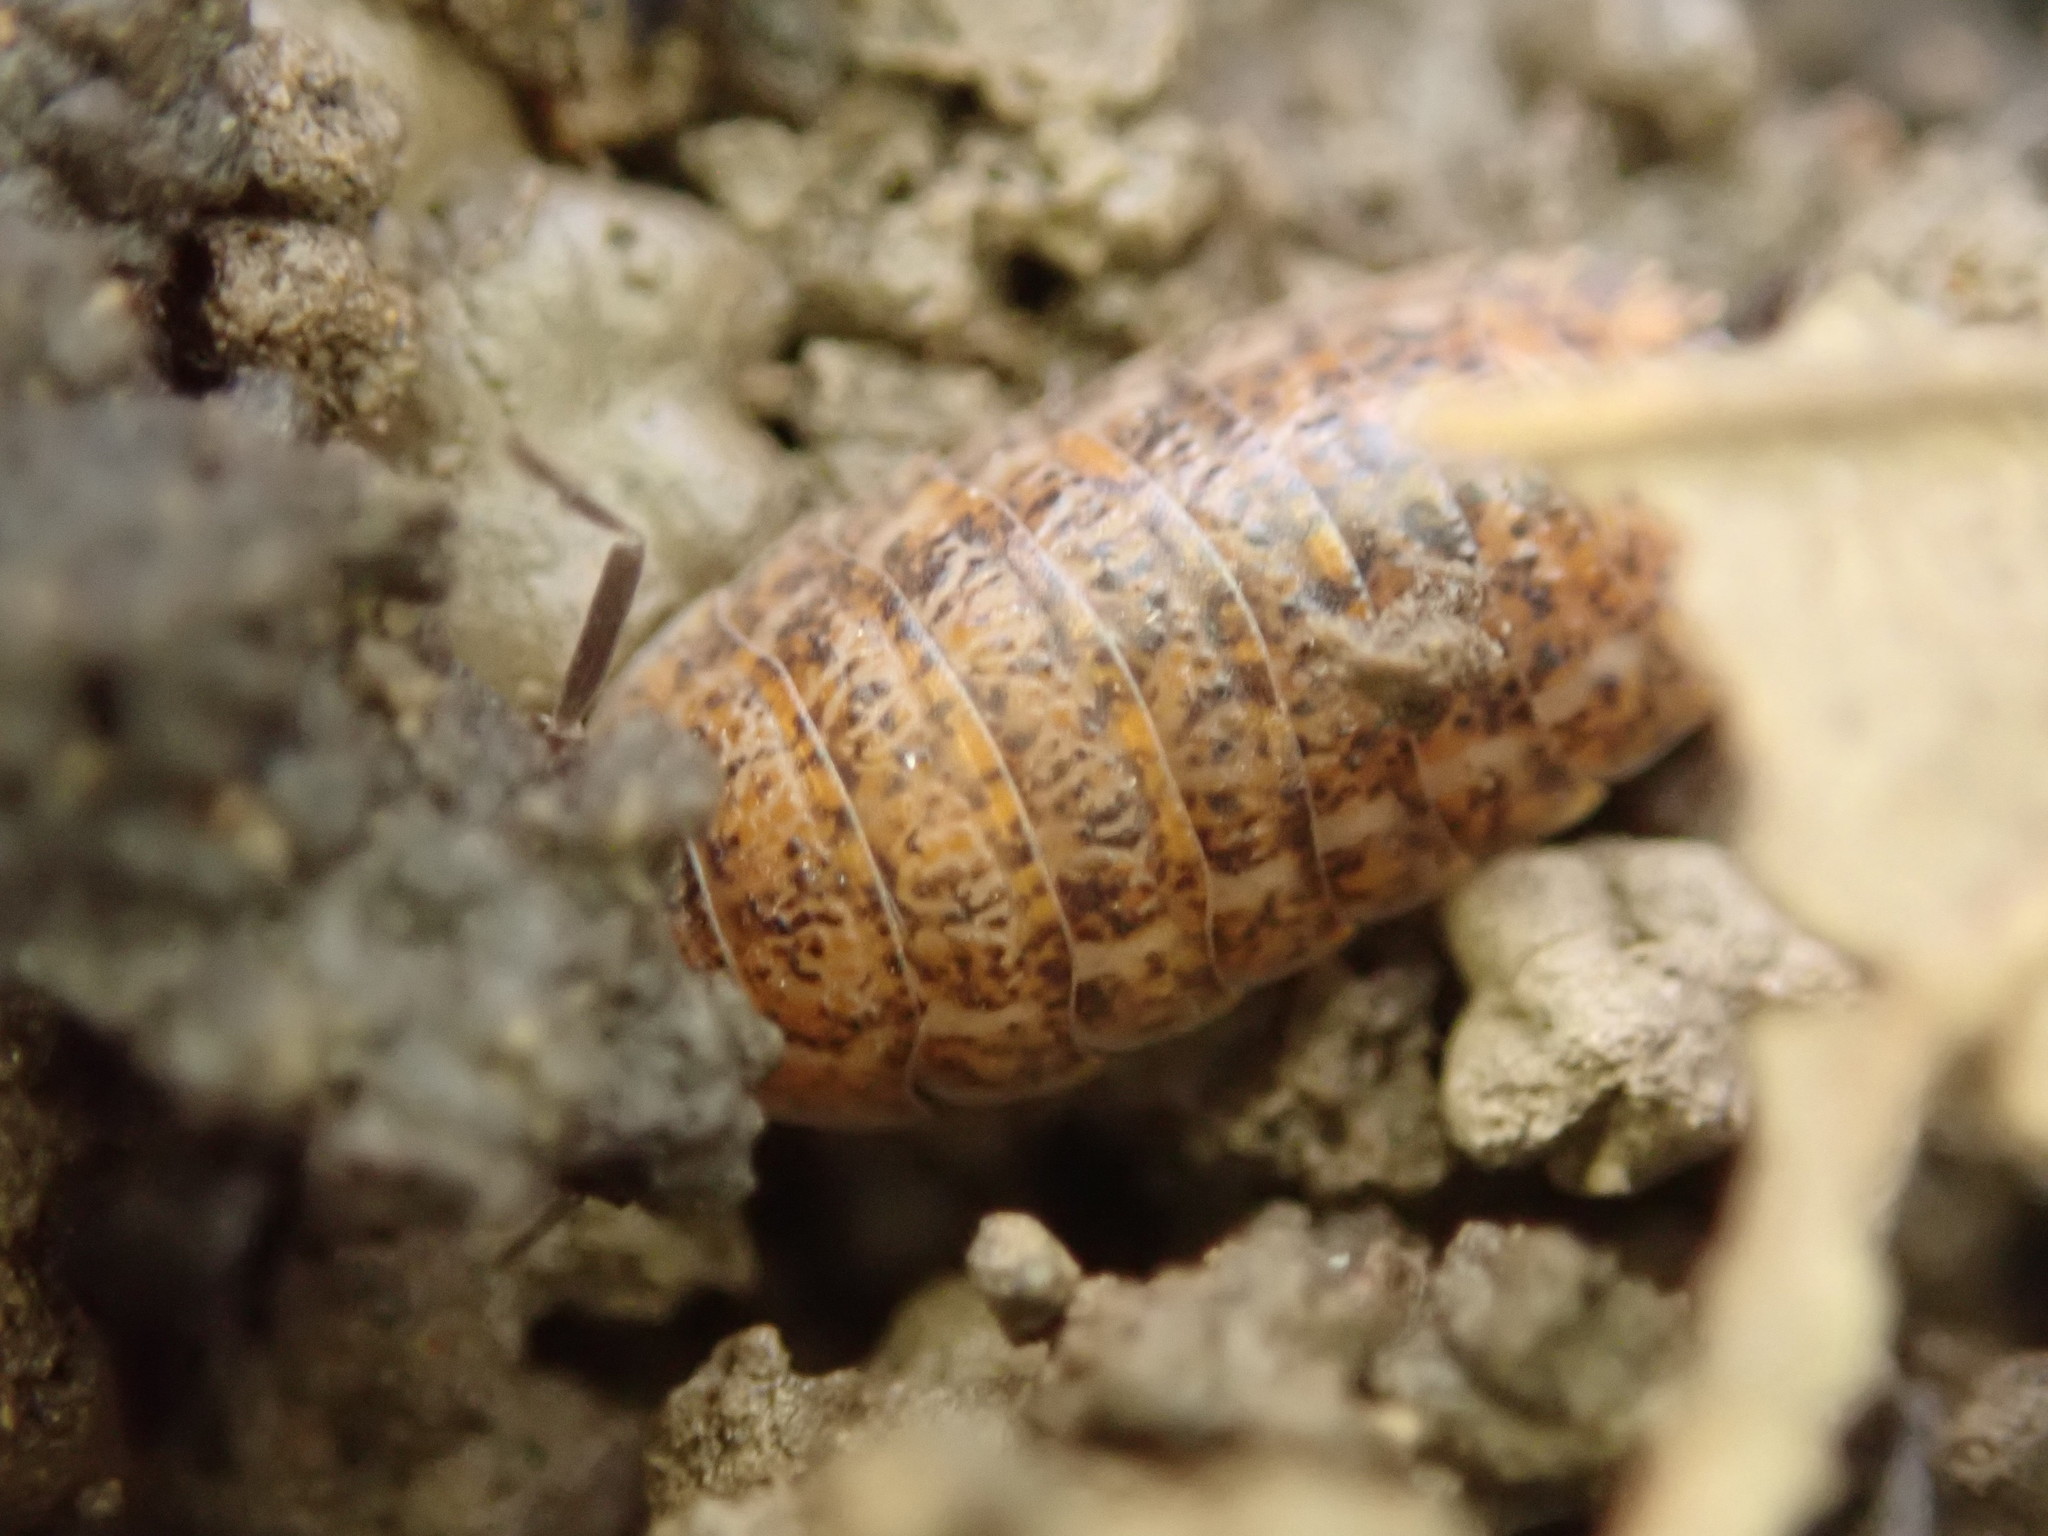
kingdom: Animalia
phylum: Arthropoda
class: Malacostraca
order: Isopoda
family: Trachelipodidae
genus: Trachelipus
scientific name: Trachelipus rathkii
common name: Isopod
